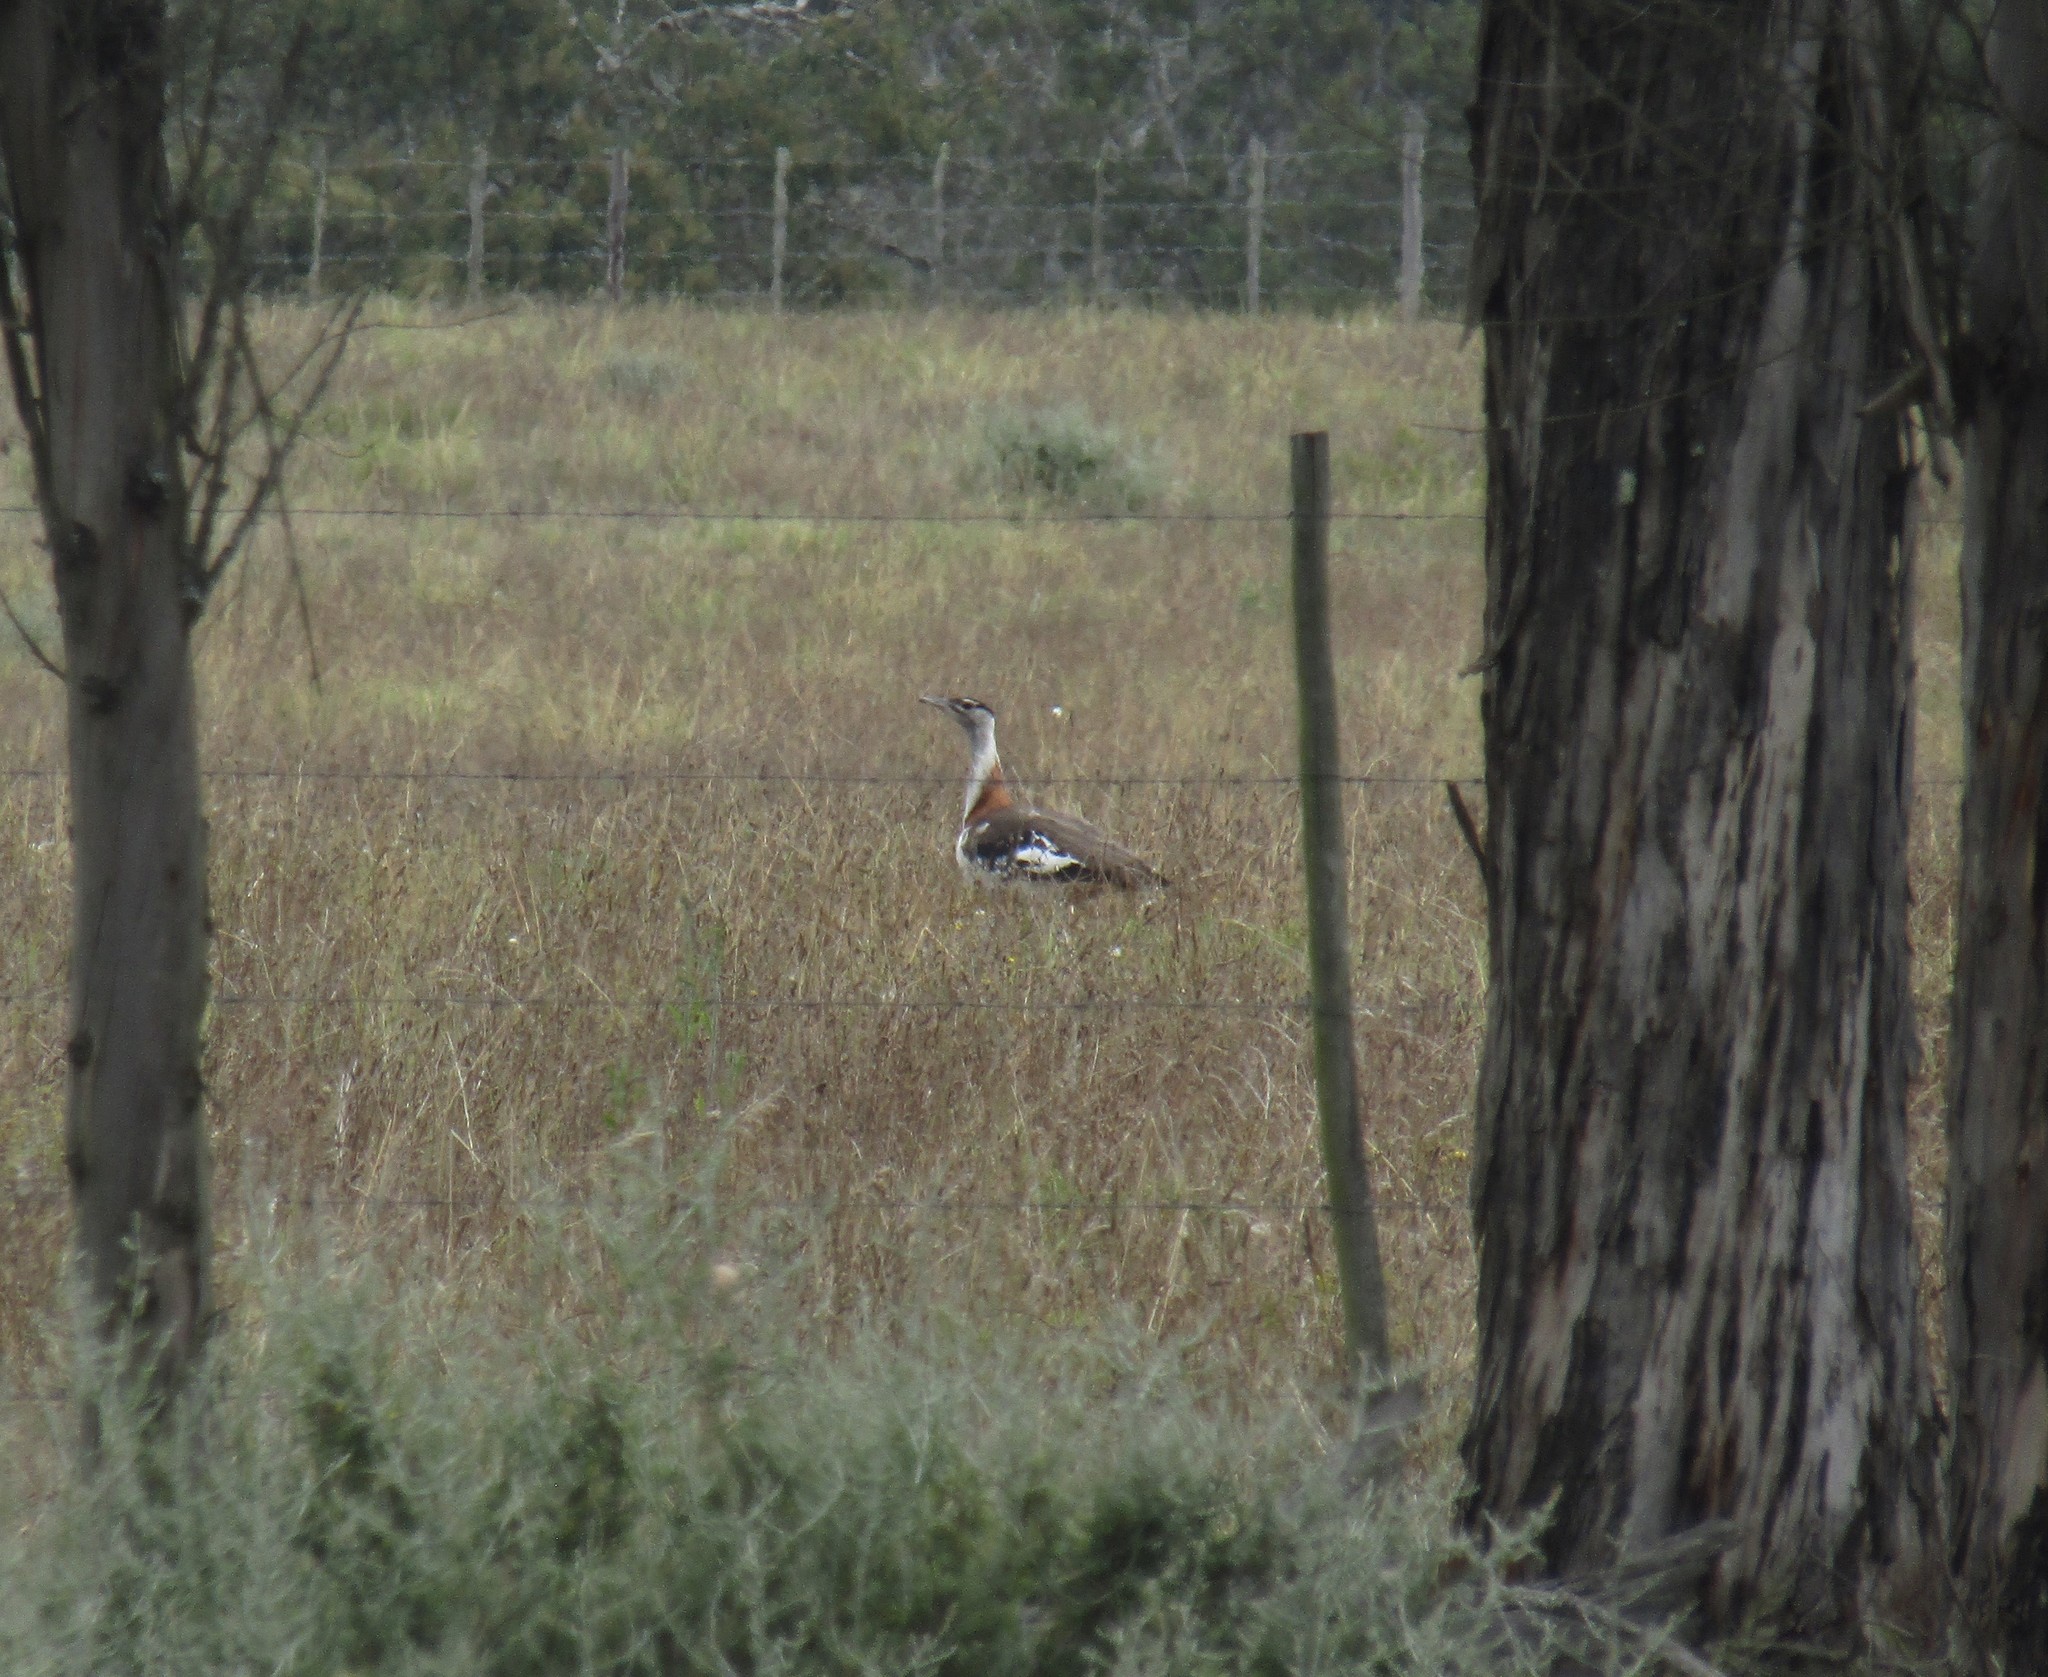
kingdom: Animalia
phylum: Chordata
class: Aves
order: Otidiformes
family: Otididae
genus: Neotis
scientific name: Neotis denhami
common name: Denham's bustard
